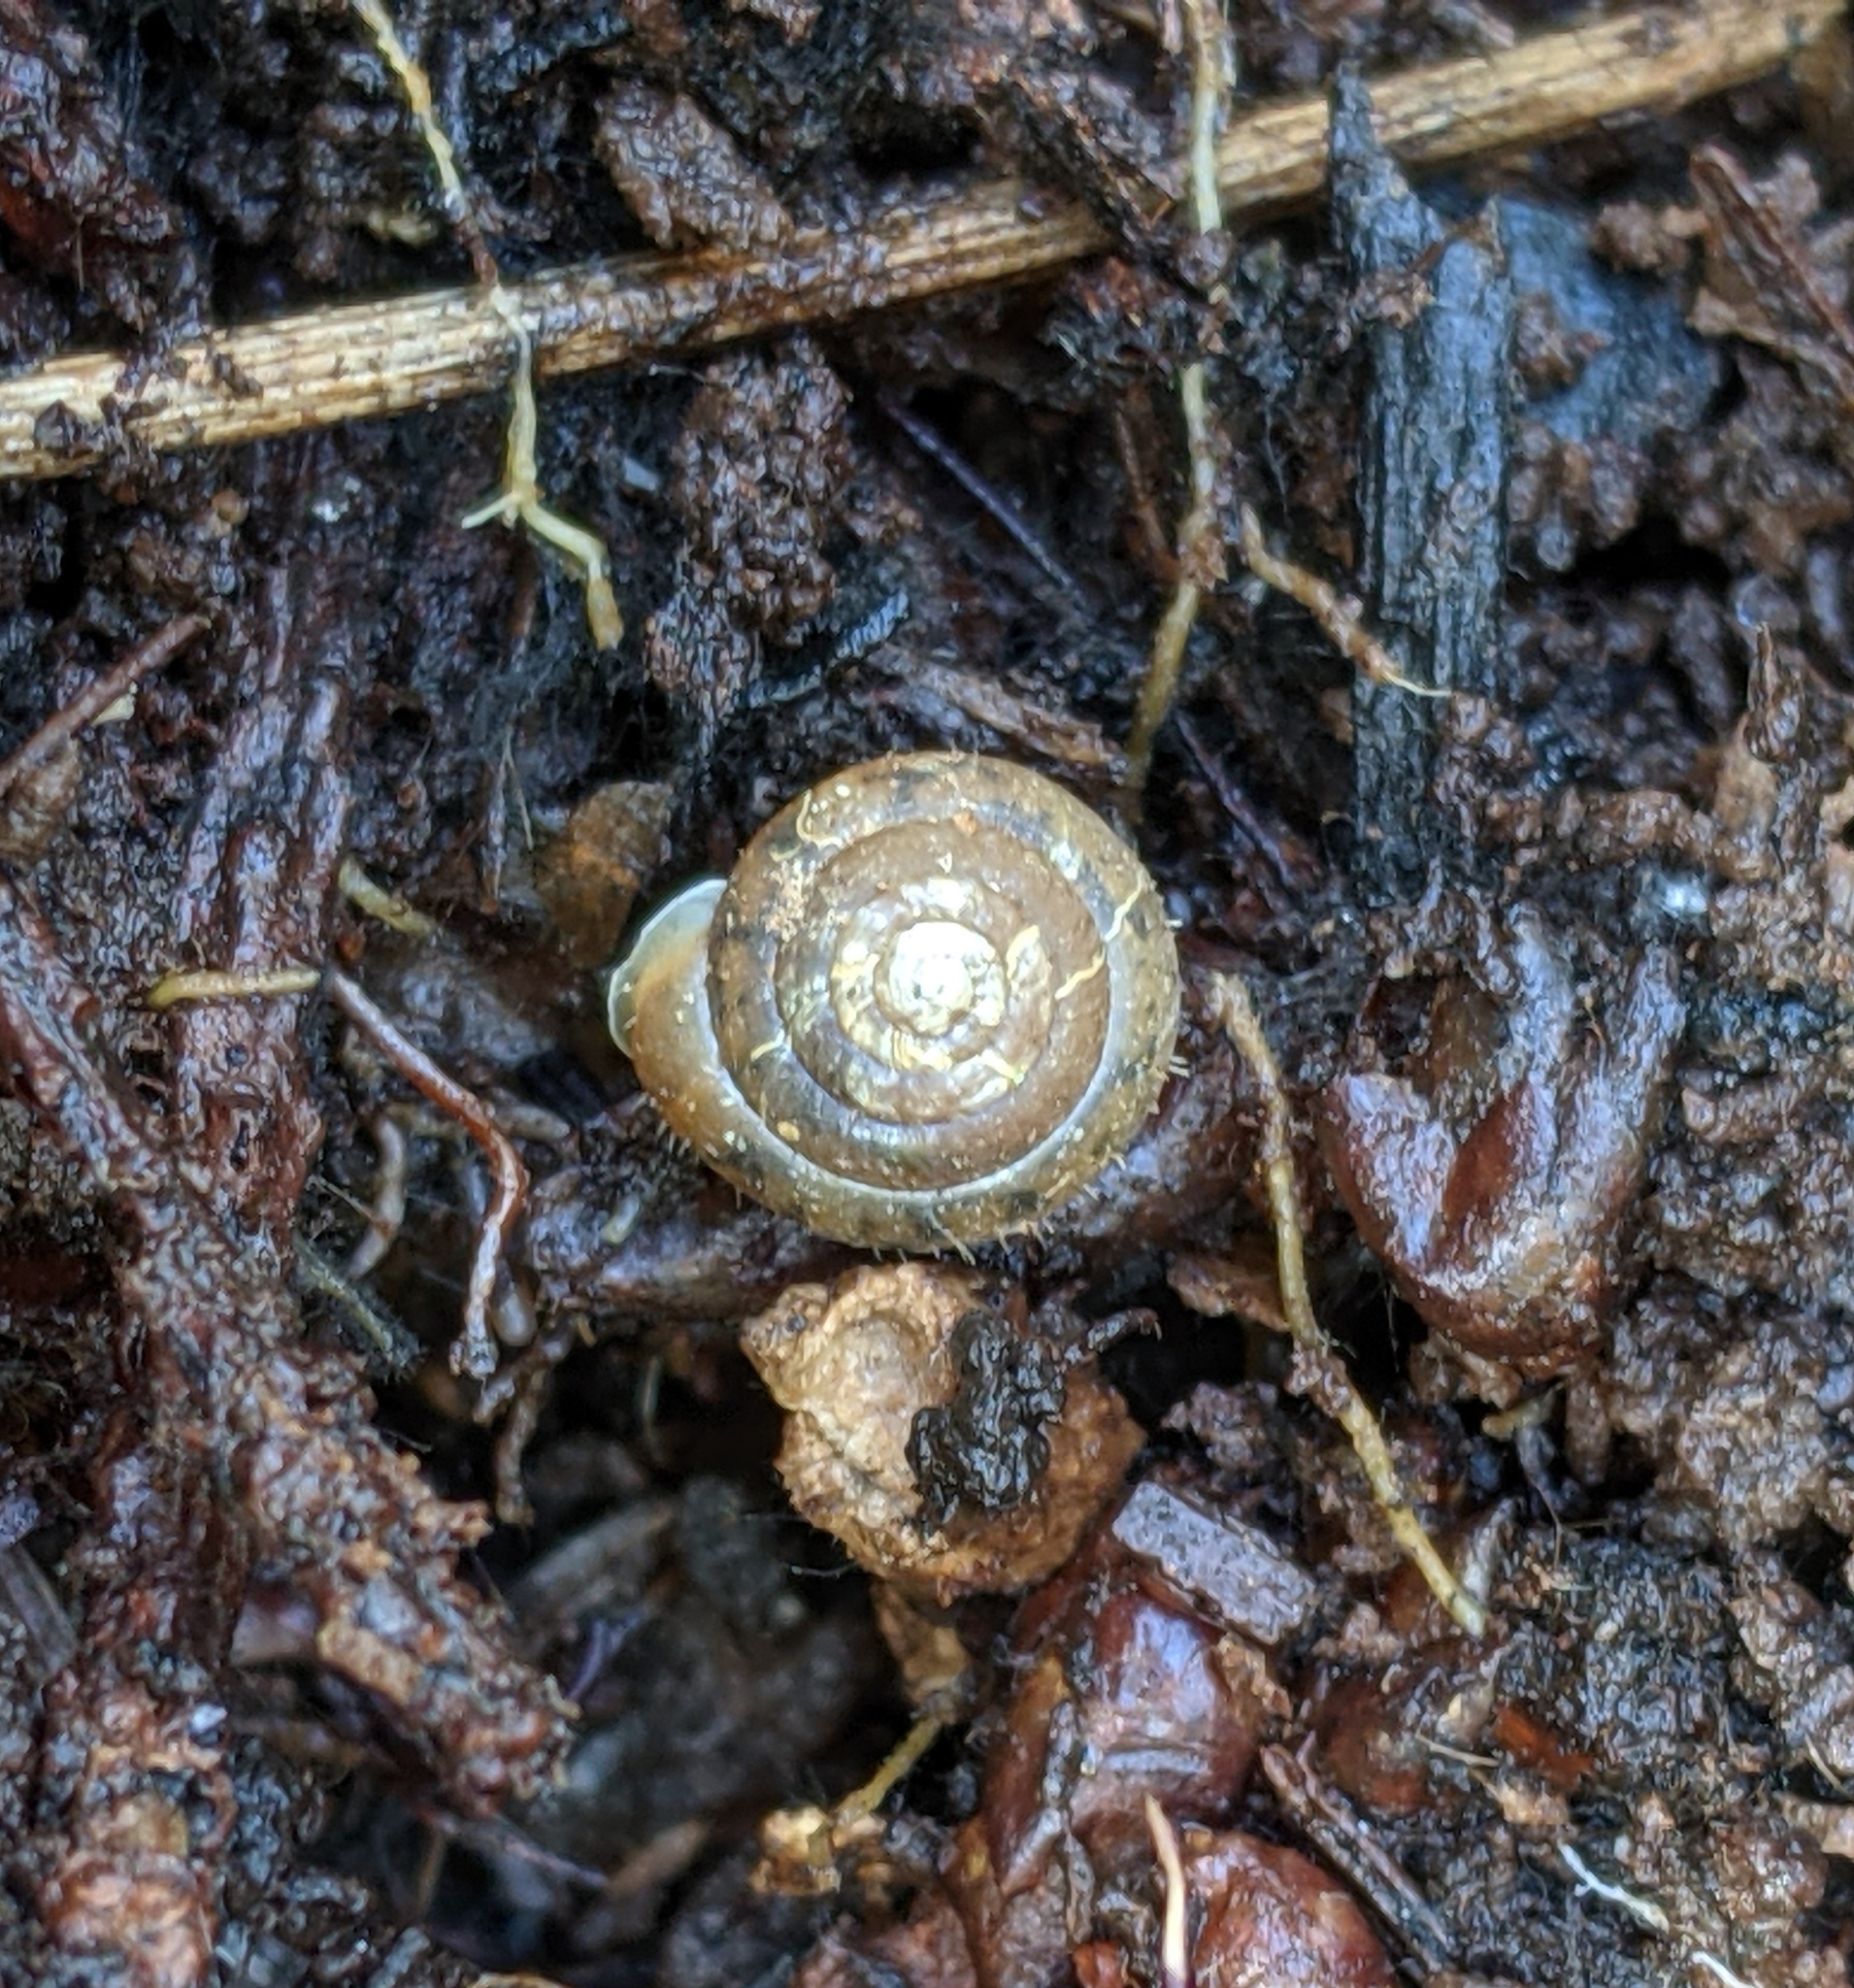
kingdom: Animalia
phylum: Mollusca
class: Gastropoda
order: Stylommatophora
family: Polygyridae
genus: Vespericola
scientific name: Vespericola columbianus
